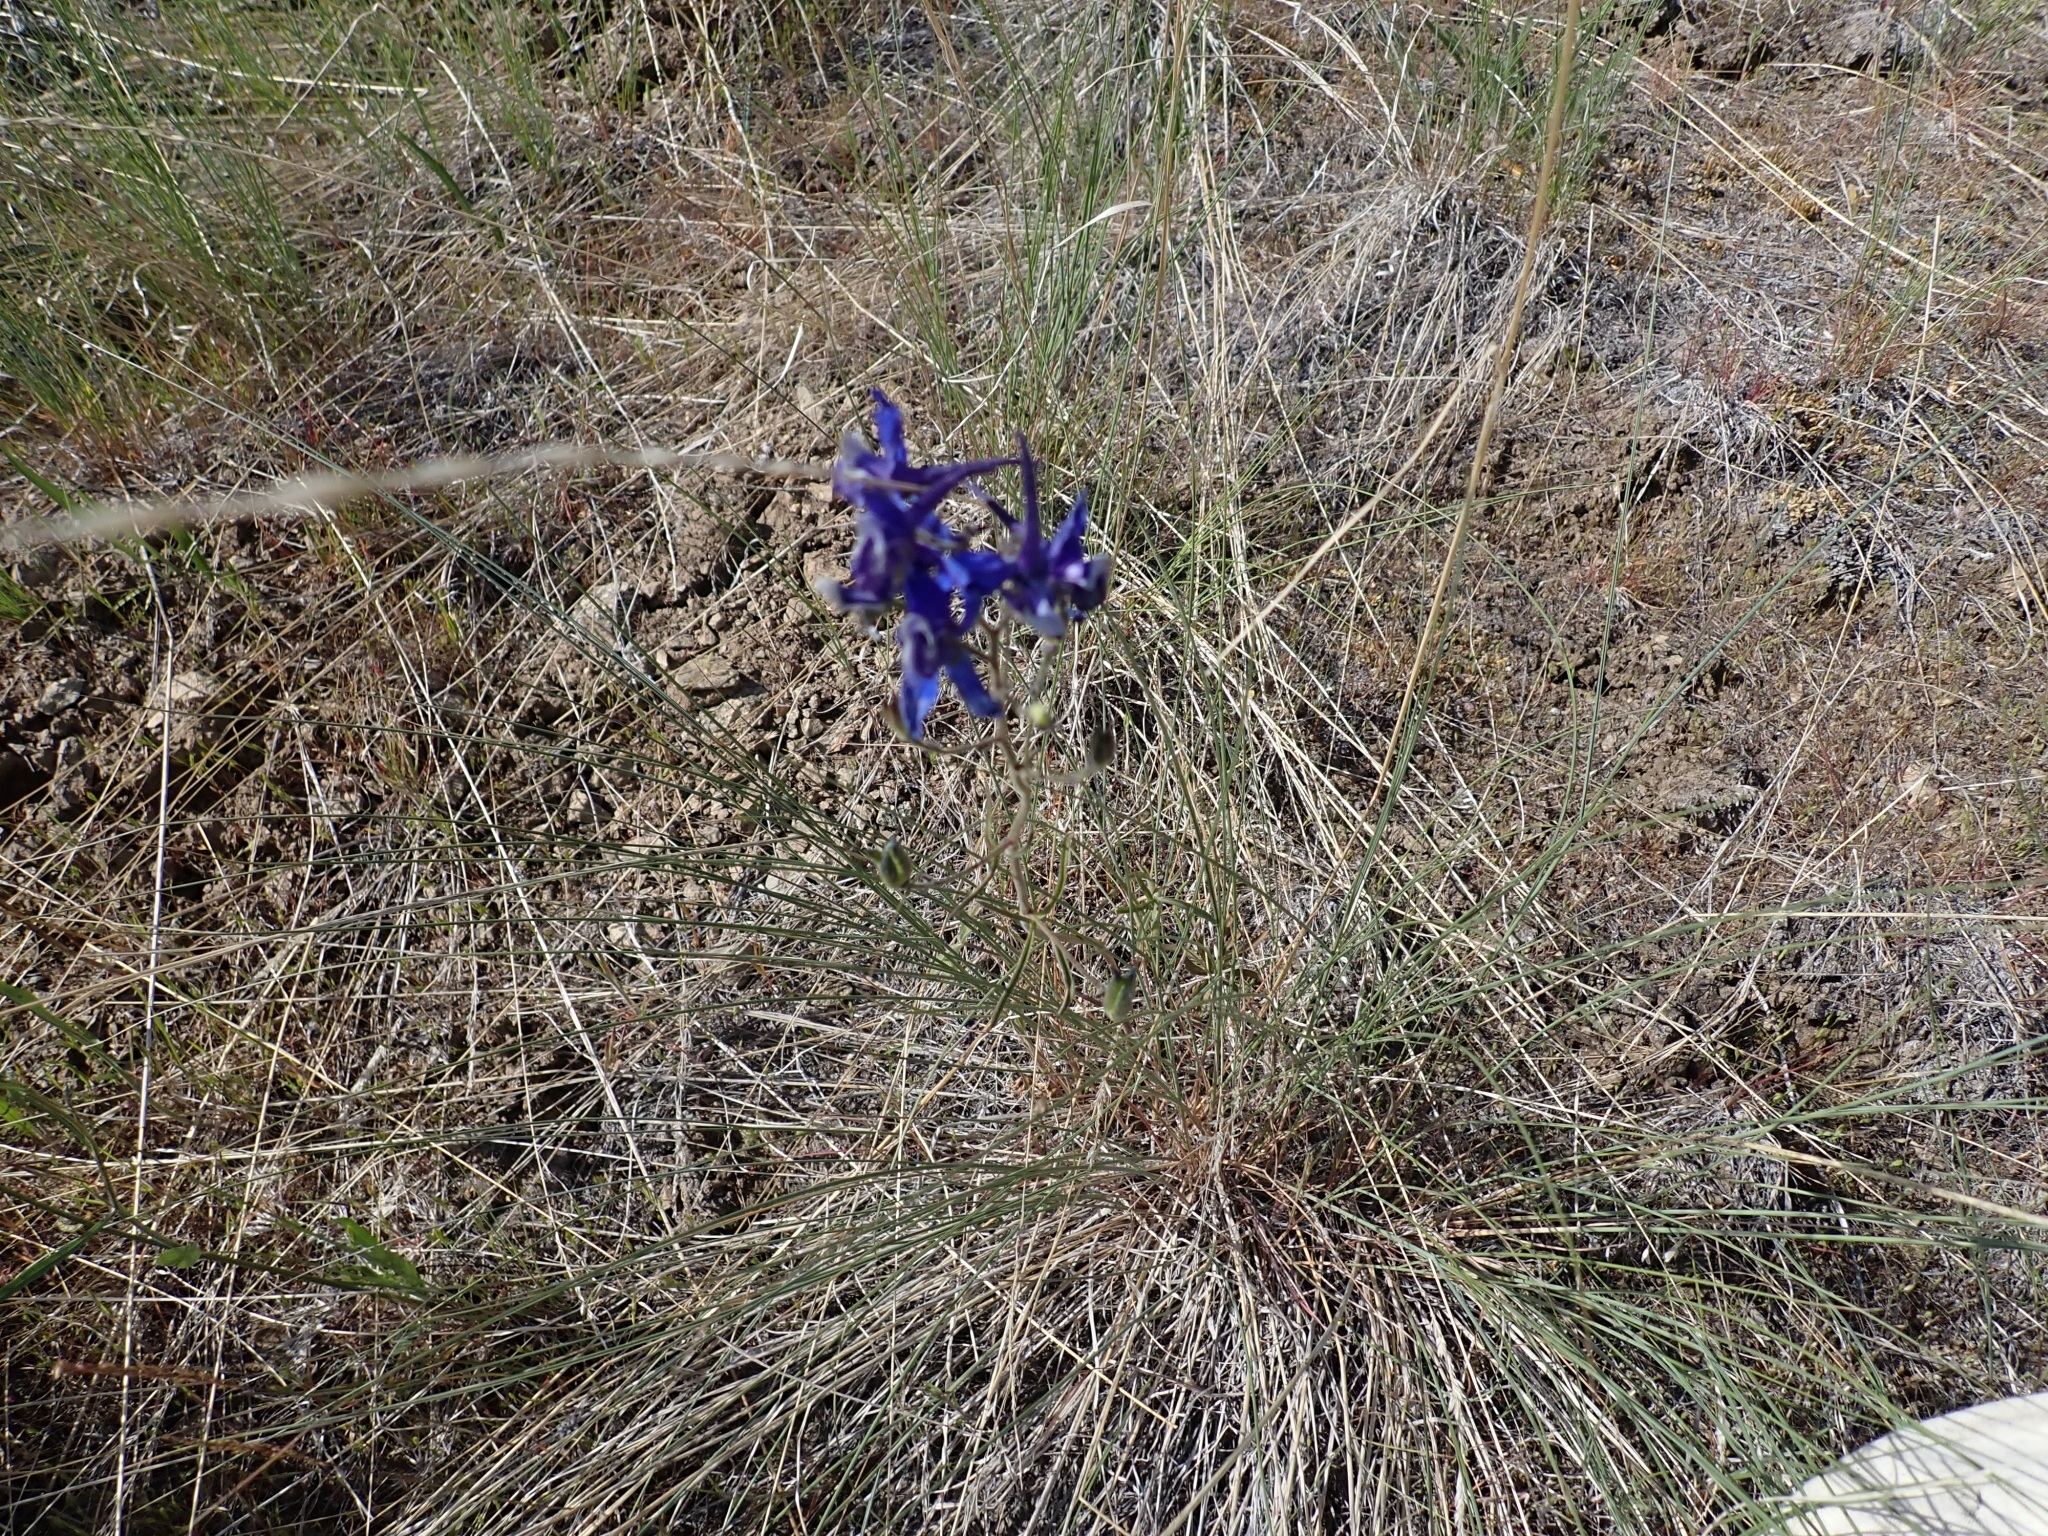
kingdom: Plantae
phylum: Tracheophyta
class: Magnoliopsida
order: Ranunculales
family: Ranunculaceae
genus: Delphinium
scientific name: Delphinium nuttallianum
